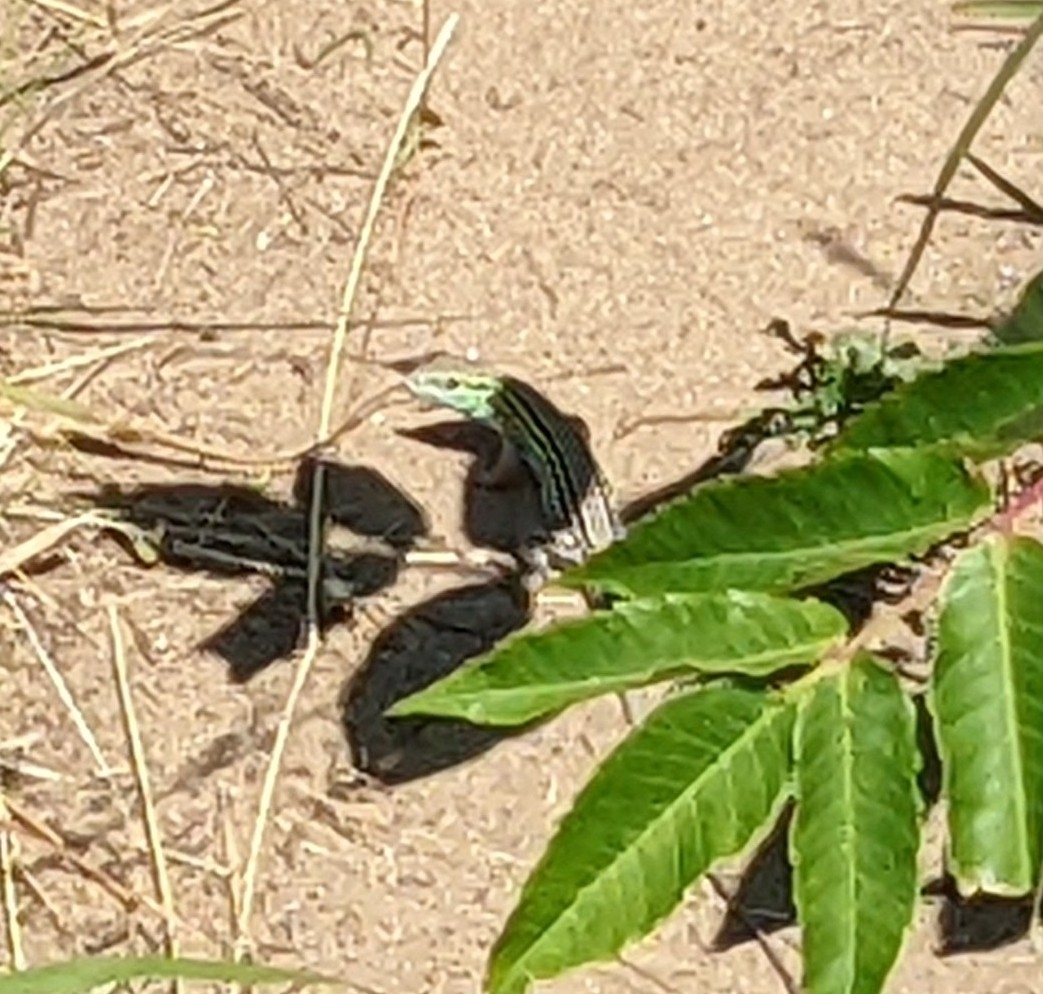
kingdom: Animalia
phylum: Chordata
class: Squamata
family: Teiidae
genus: Aspidoscelis
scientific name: Aspidoscelis sexlineatus
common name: Six-lined racerunner
